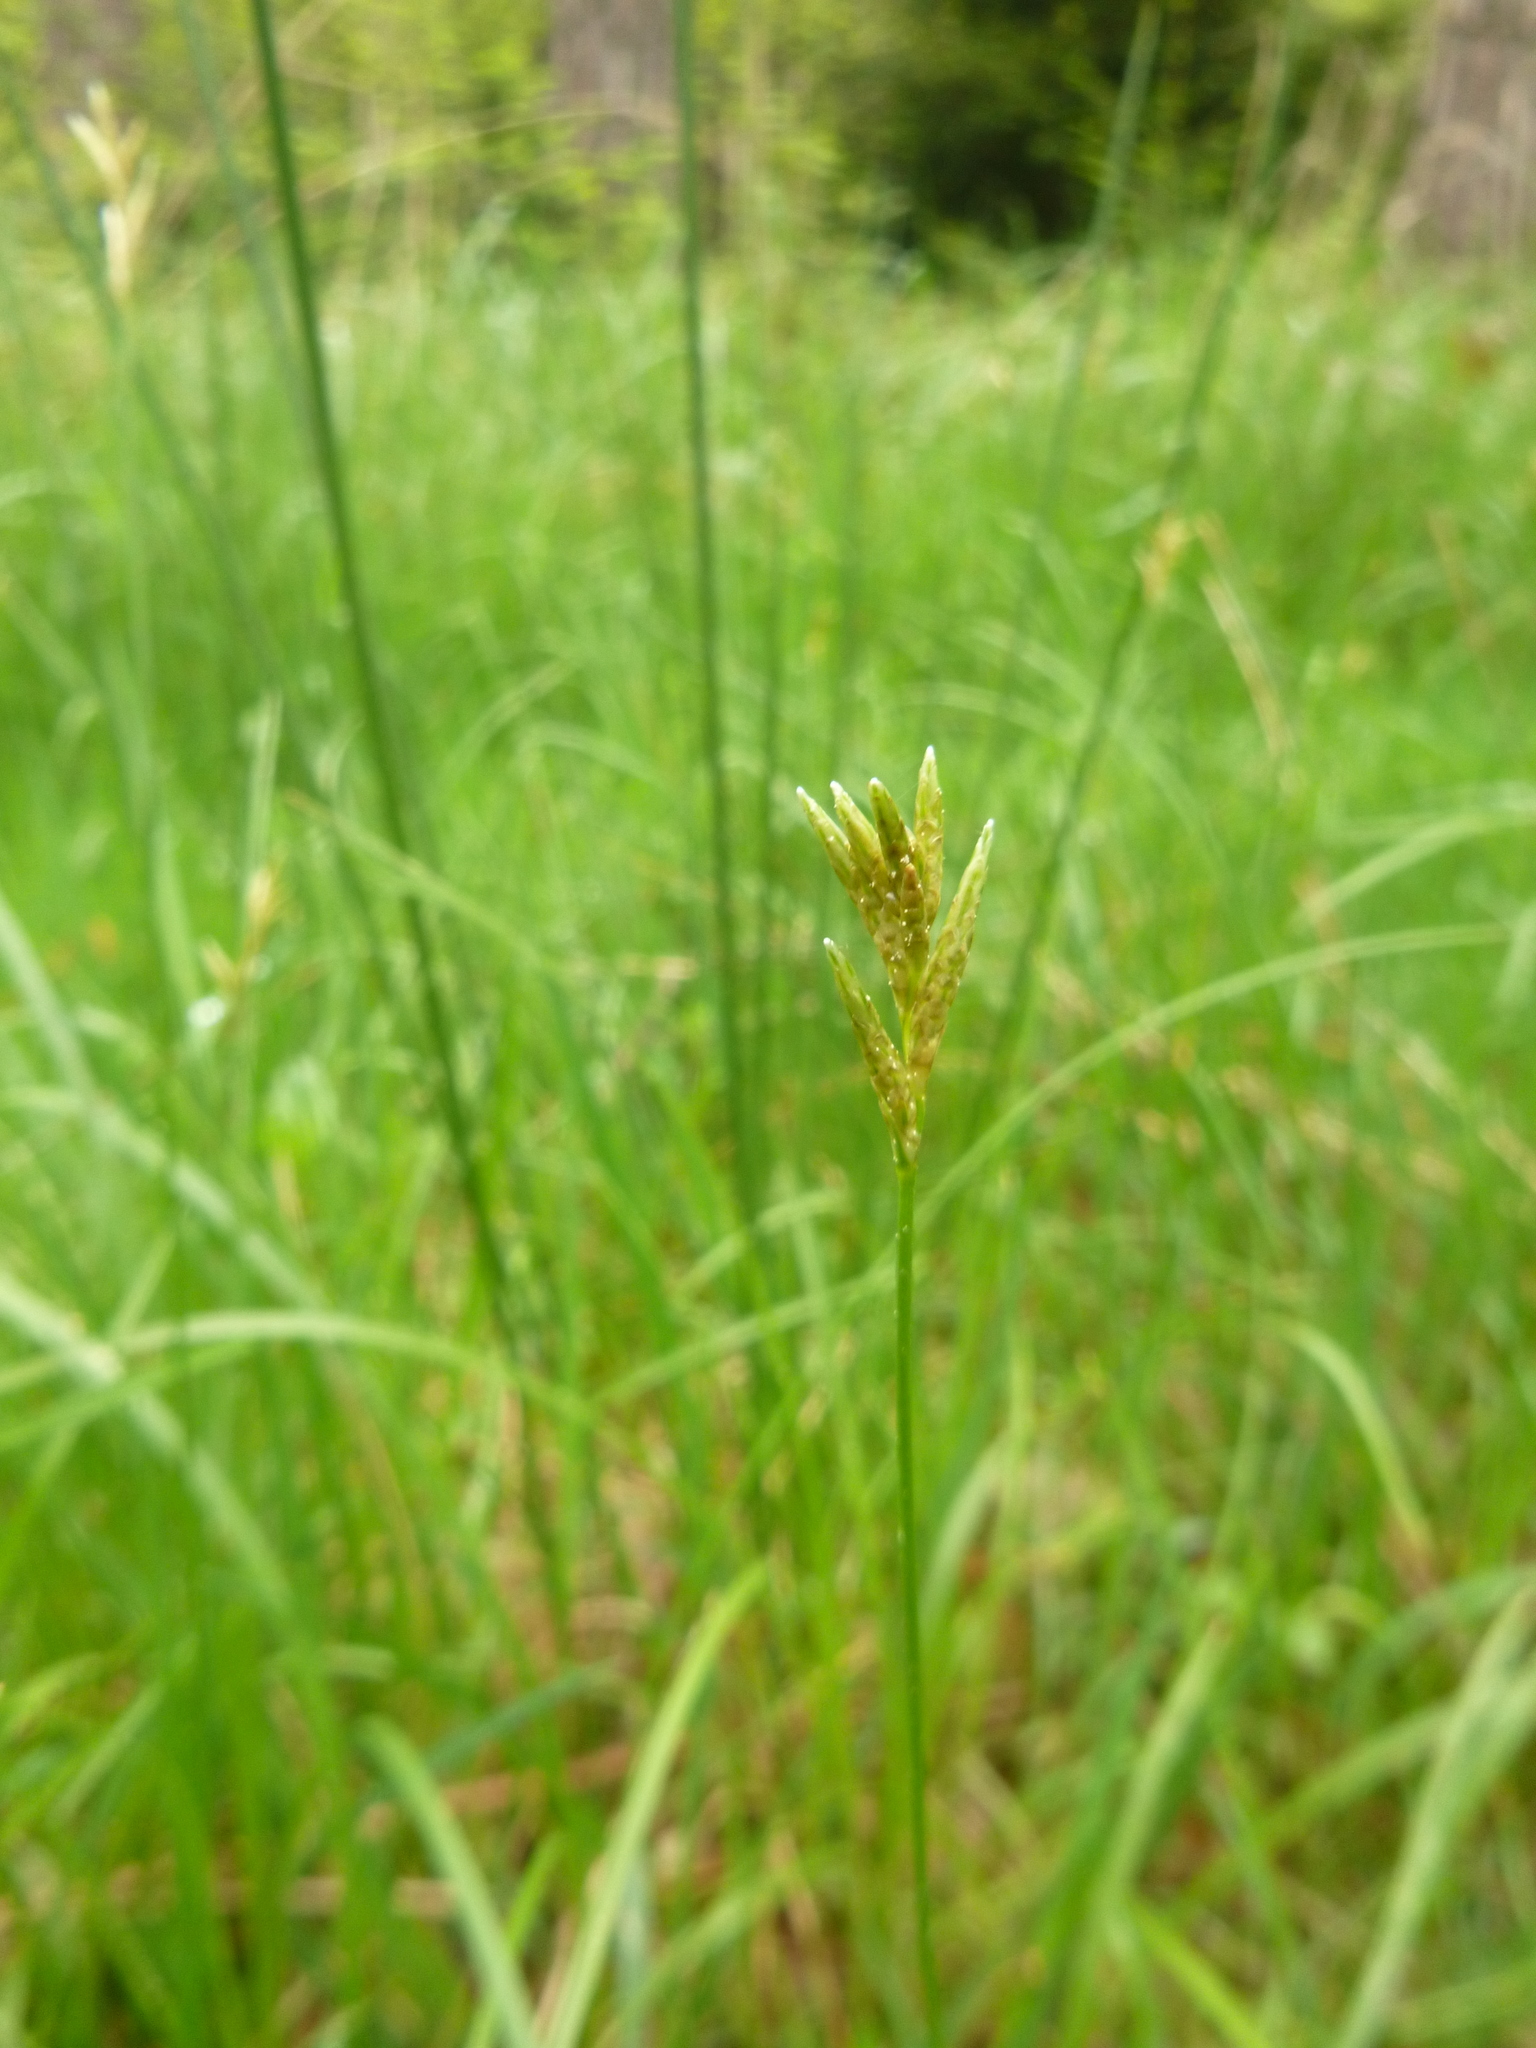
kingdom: Plantae
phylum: Tracheophyta
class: Liliopsida
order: Poales
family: Cyperaceae
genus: Carex
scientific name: Carex brizoides
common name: Quaking-grass sedge
